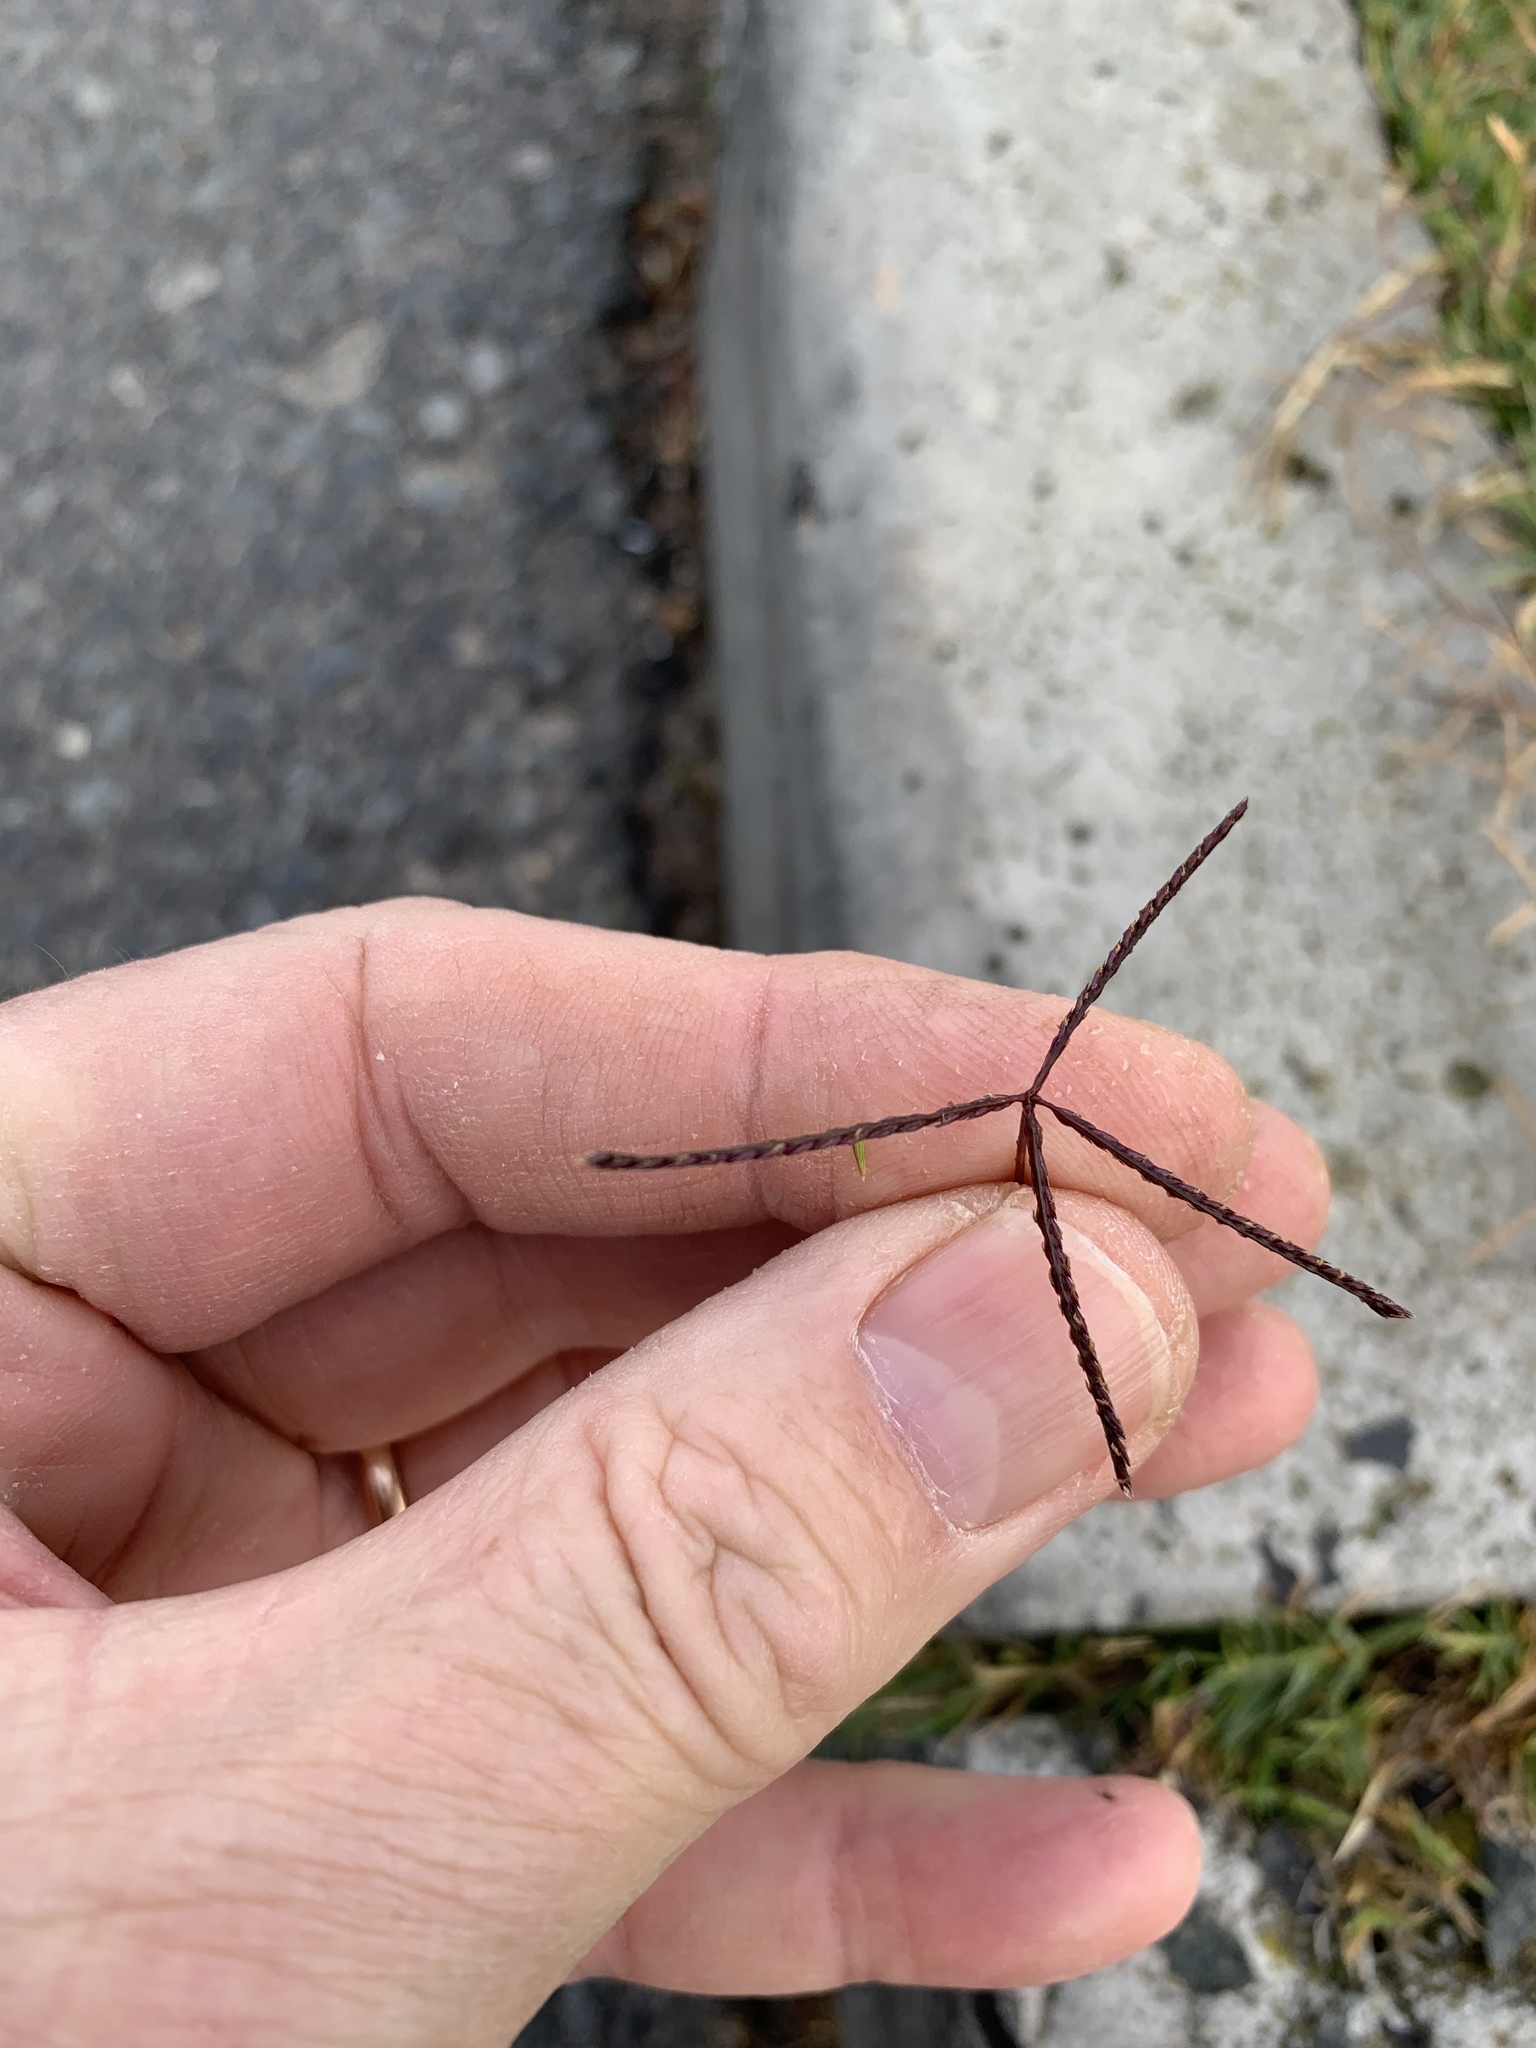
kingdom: Plantae
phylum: Tracheophyta
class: Liliopsida
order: Poales
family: Poaceae
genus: Cynodon
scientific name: Cynodon dactylon
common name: Bermuda grass
